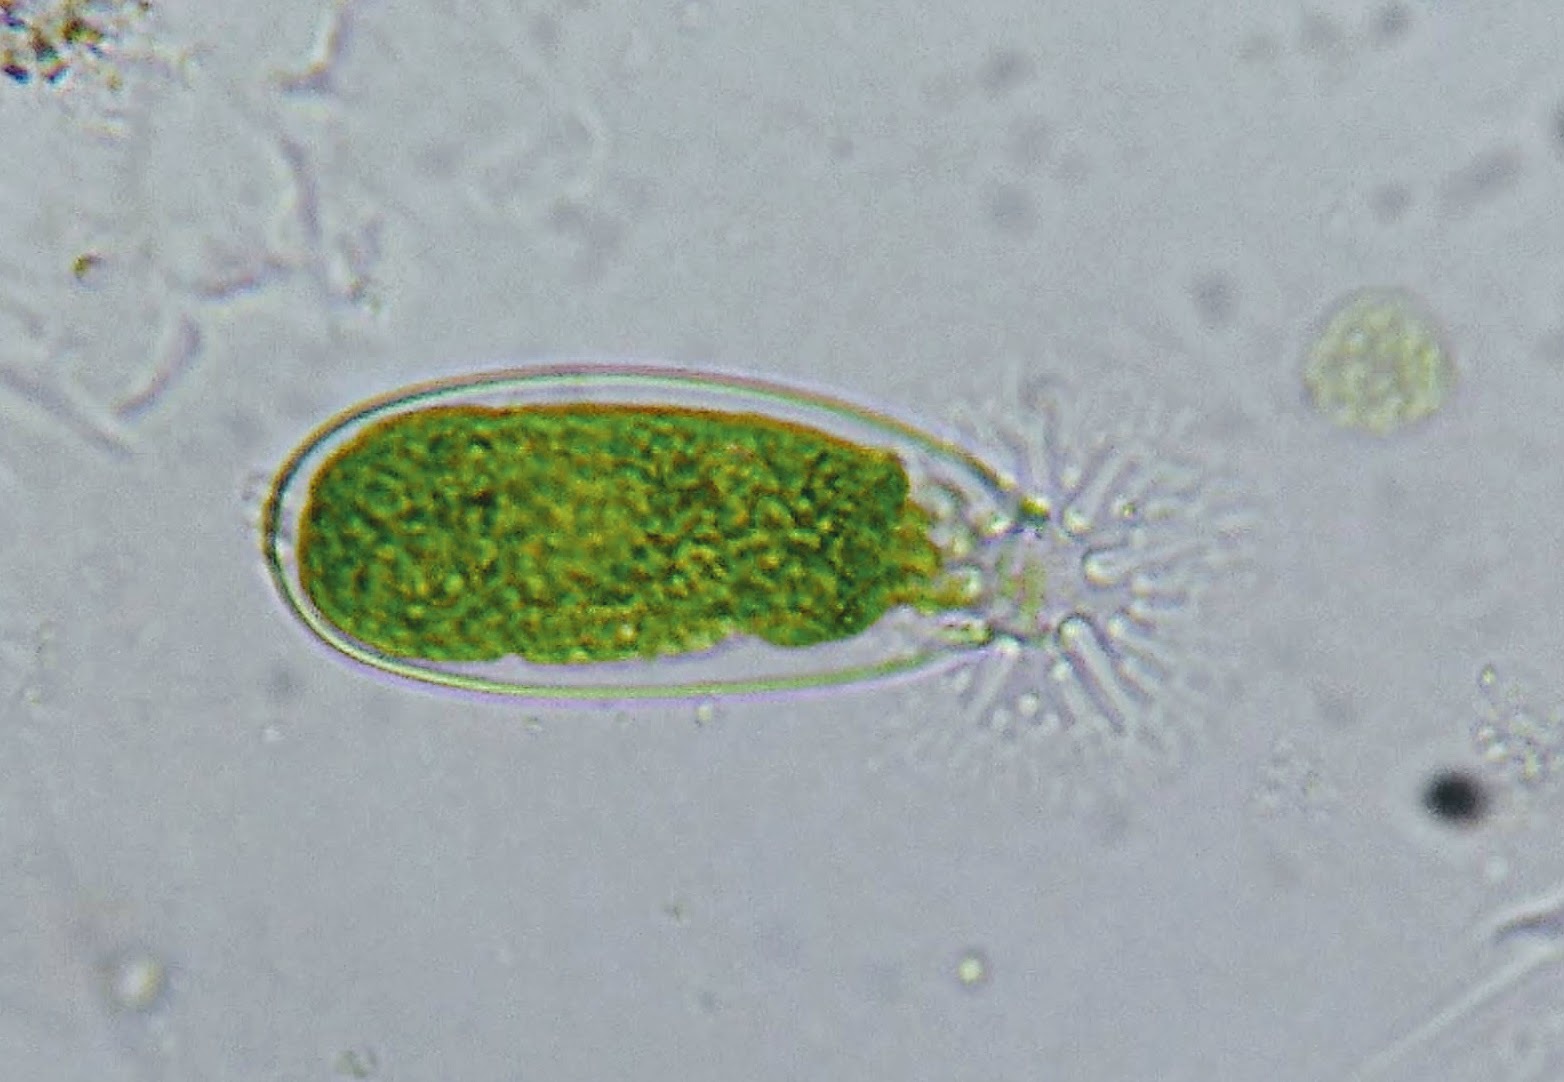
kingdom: Plantae
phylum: Chlorophyta
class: Chlorophyceae
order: Oedogoniales
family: Oedogoniaceae
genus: Oedogonium
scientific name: Oedogonium
